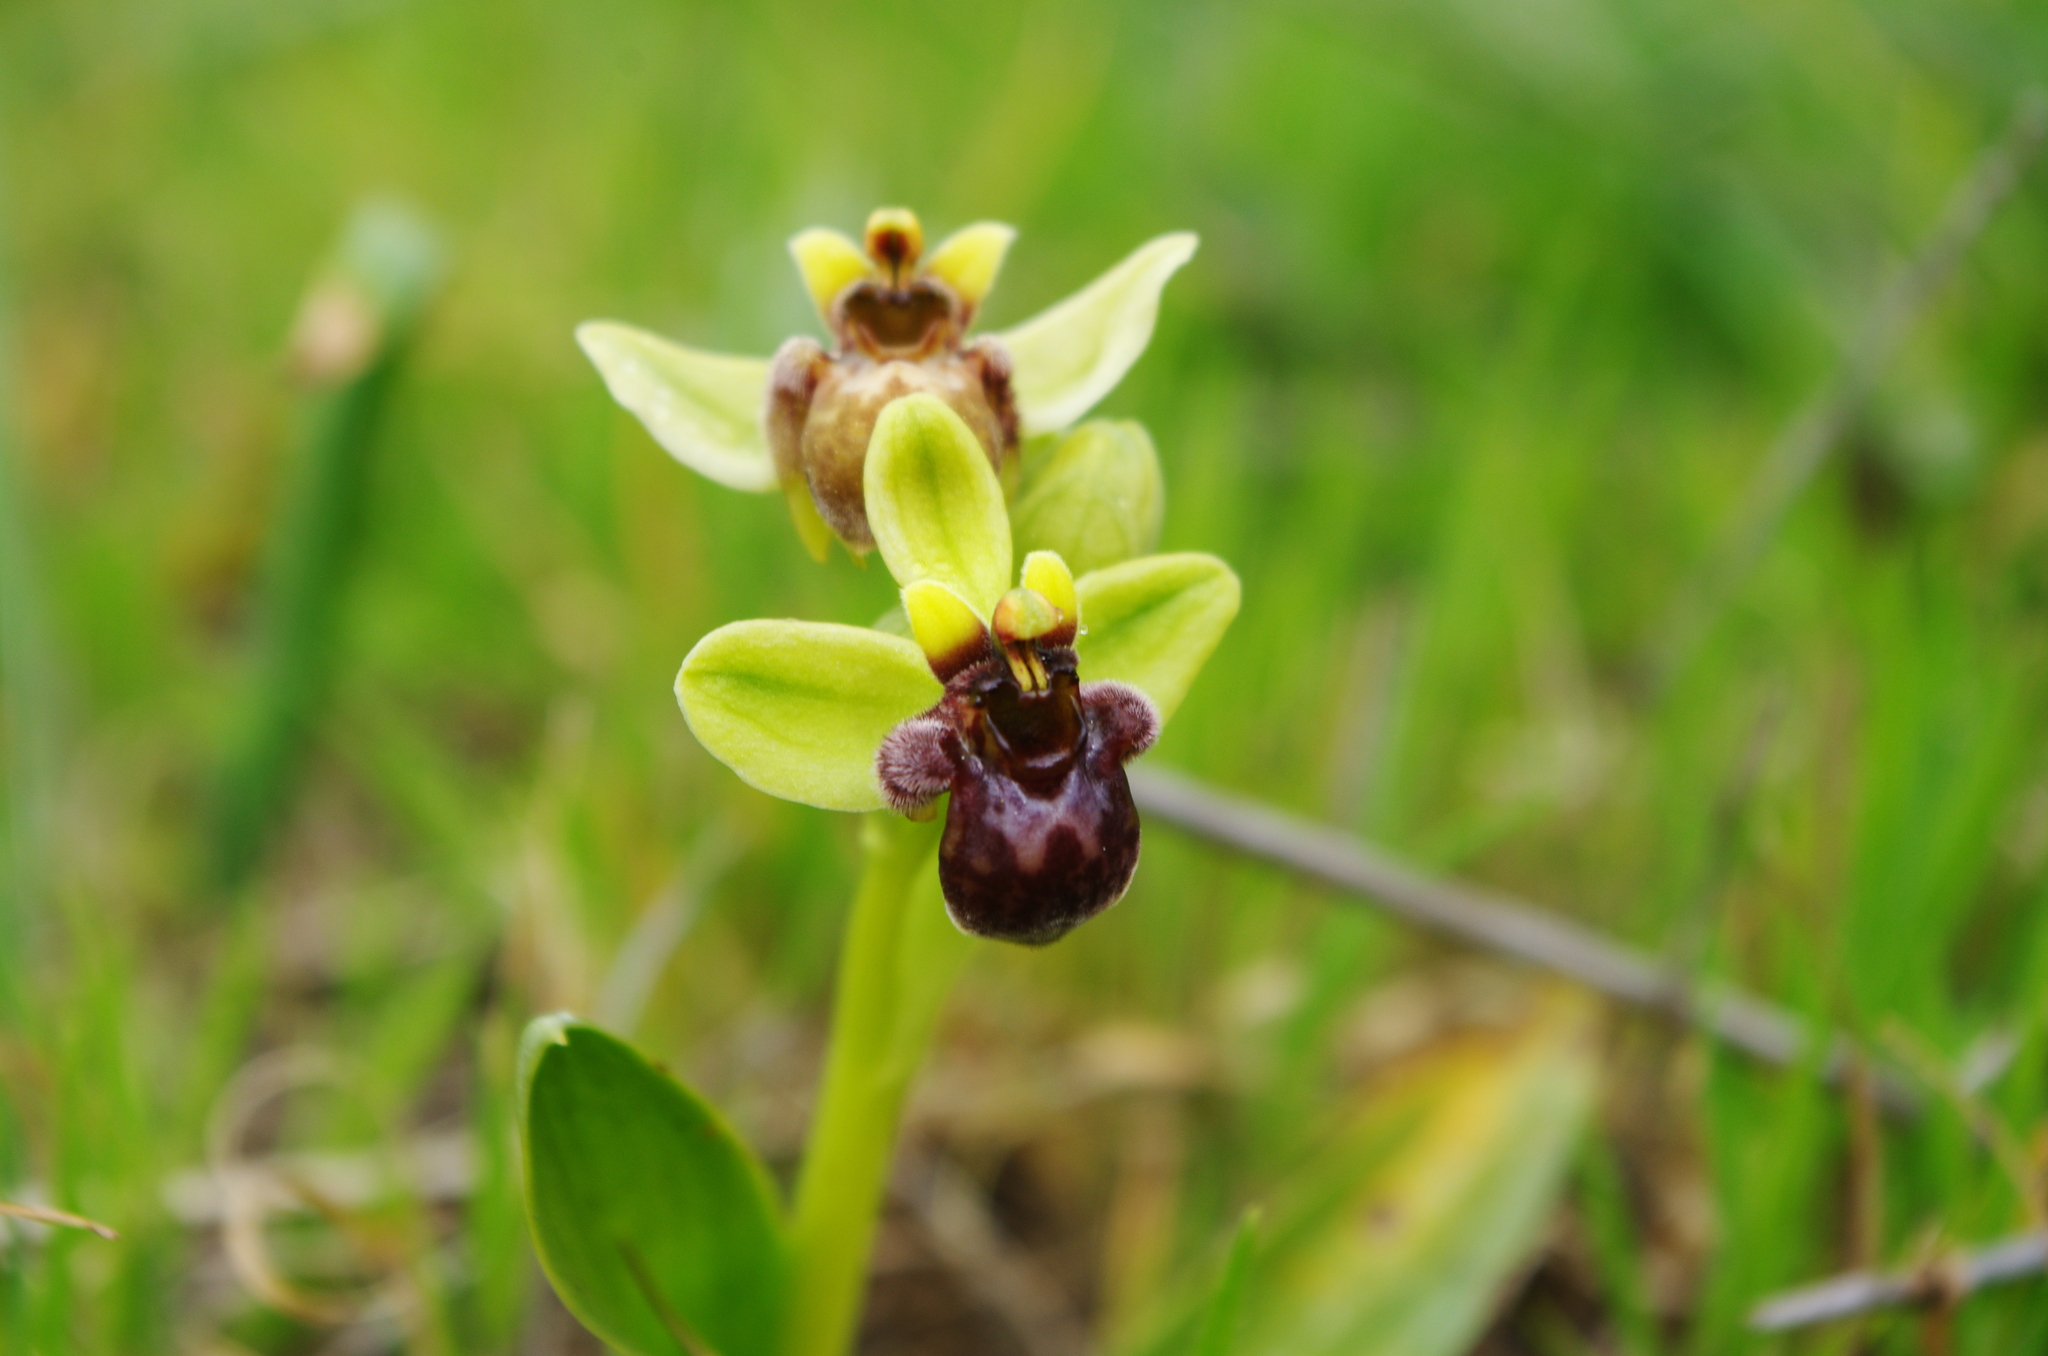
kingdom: Plantae
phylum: Tracheophyta
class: Liliopsida
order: Asparagales
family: Orchidaceae
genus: Ophrys
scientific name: Ophrys bombyliflora
